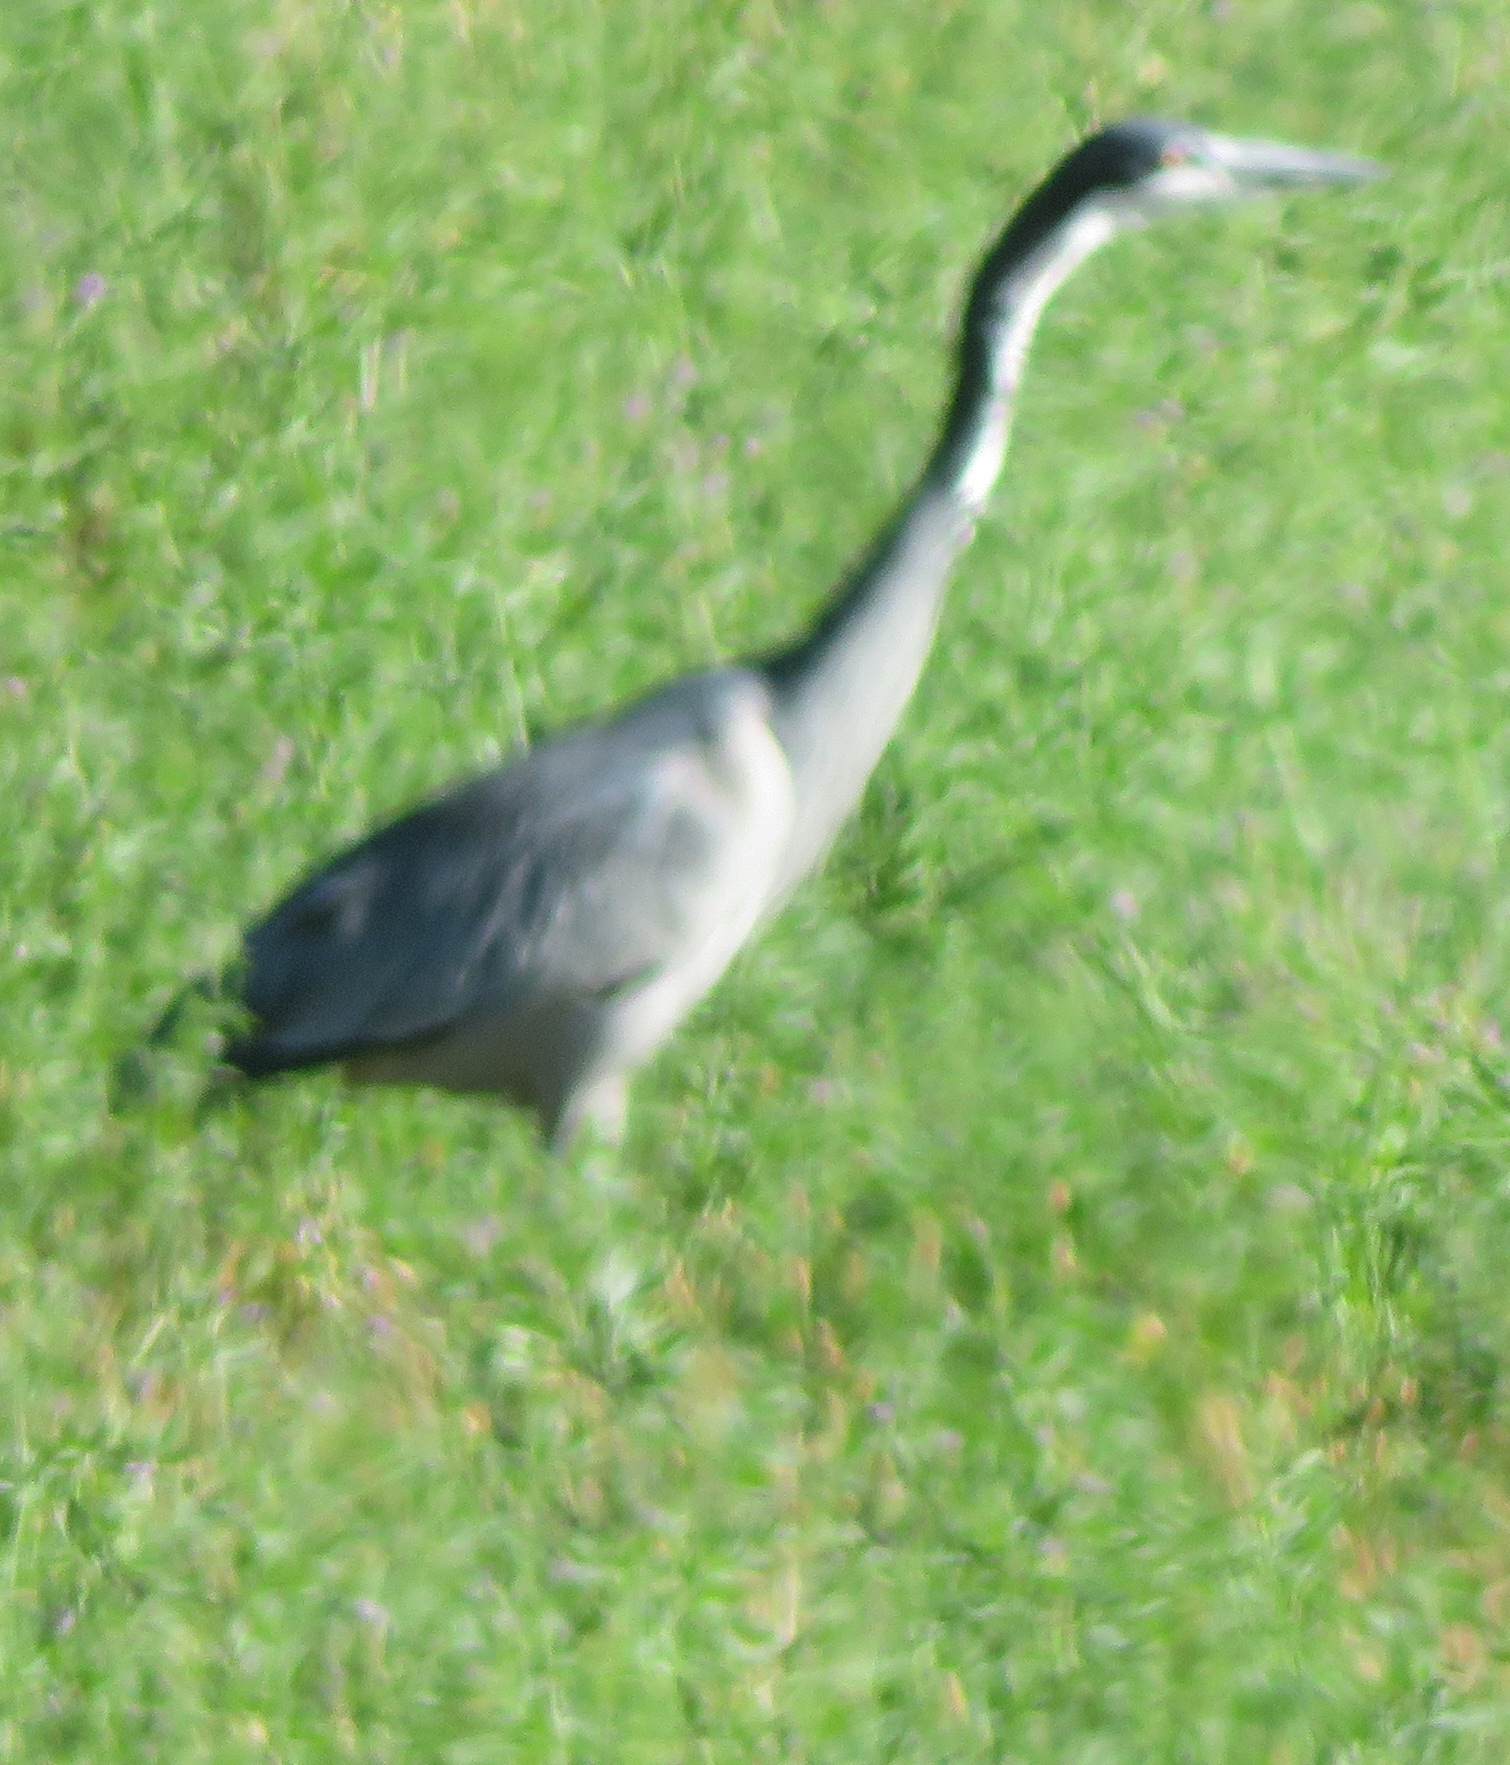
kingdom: Animalia
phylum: Chordata
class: Aves
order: Pelecaniformes
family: Ardeidae
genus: Ardea
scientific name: Ardea melanocephala
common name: Black-headed heron
